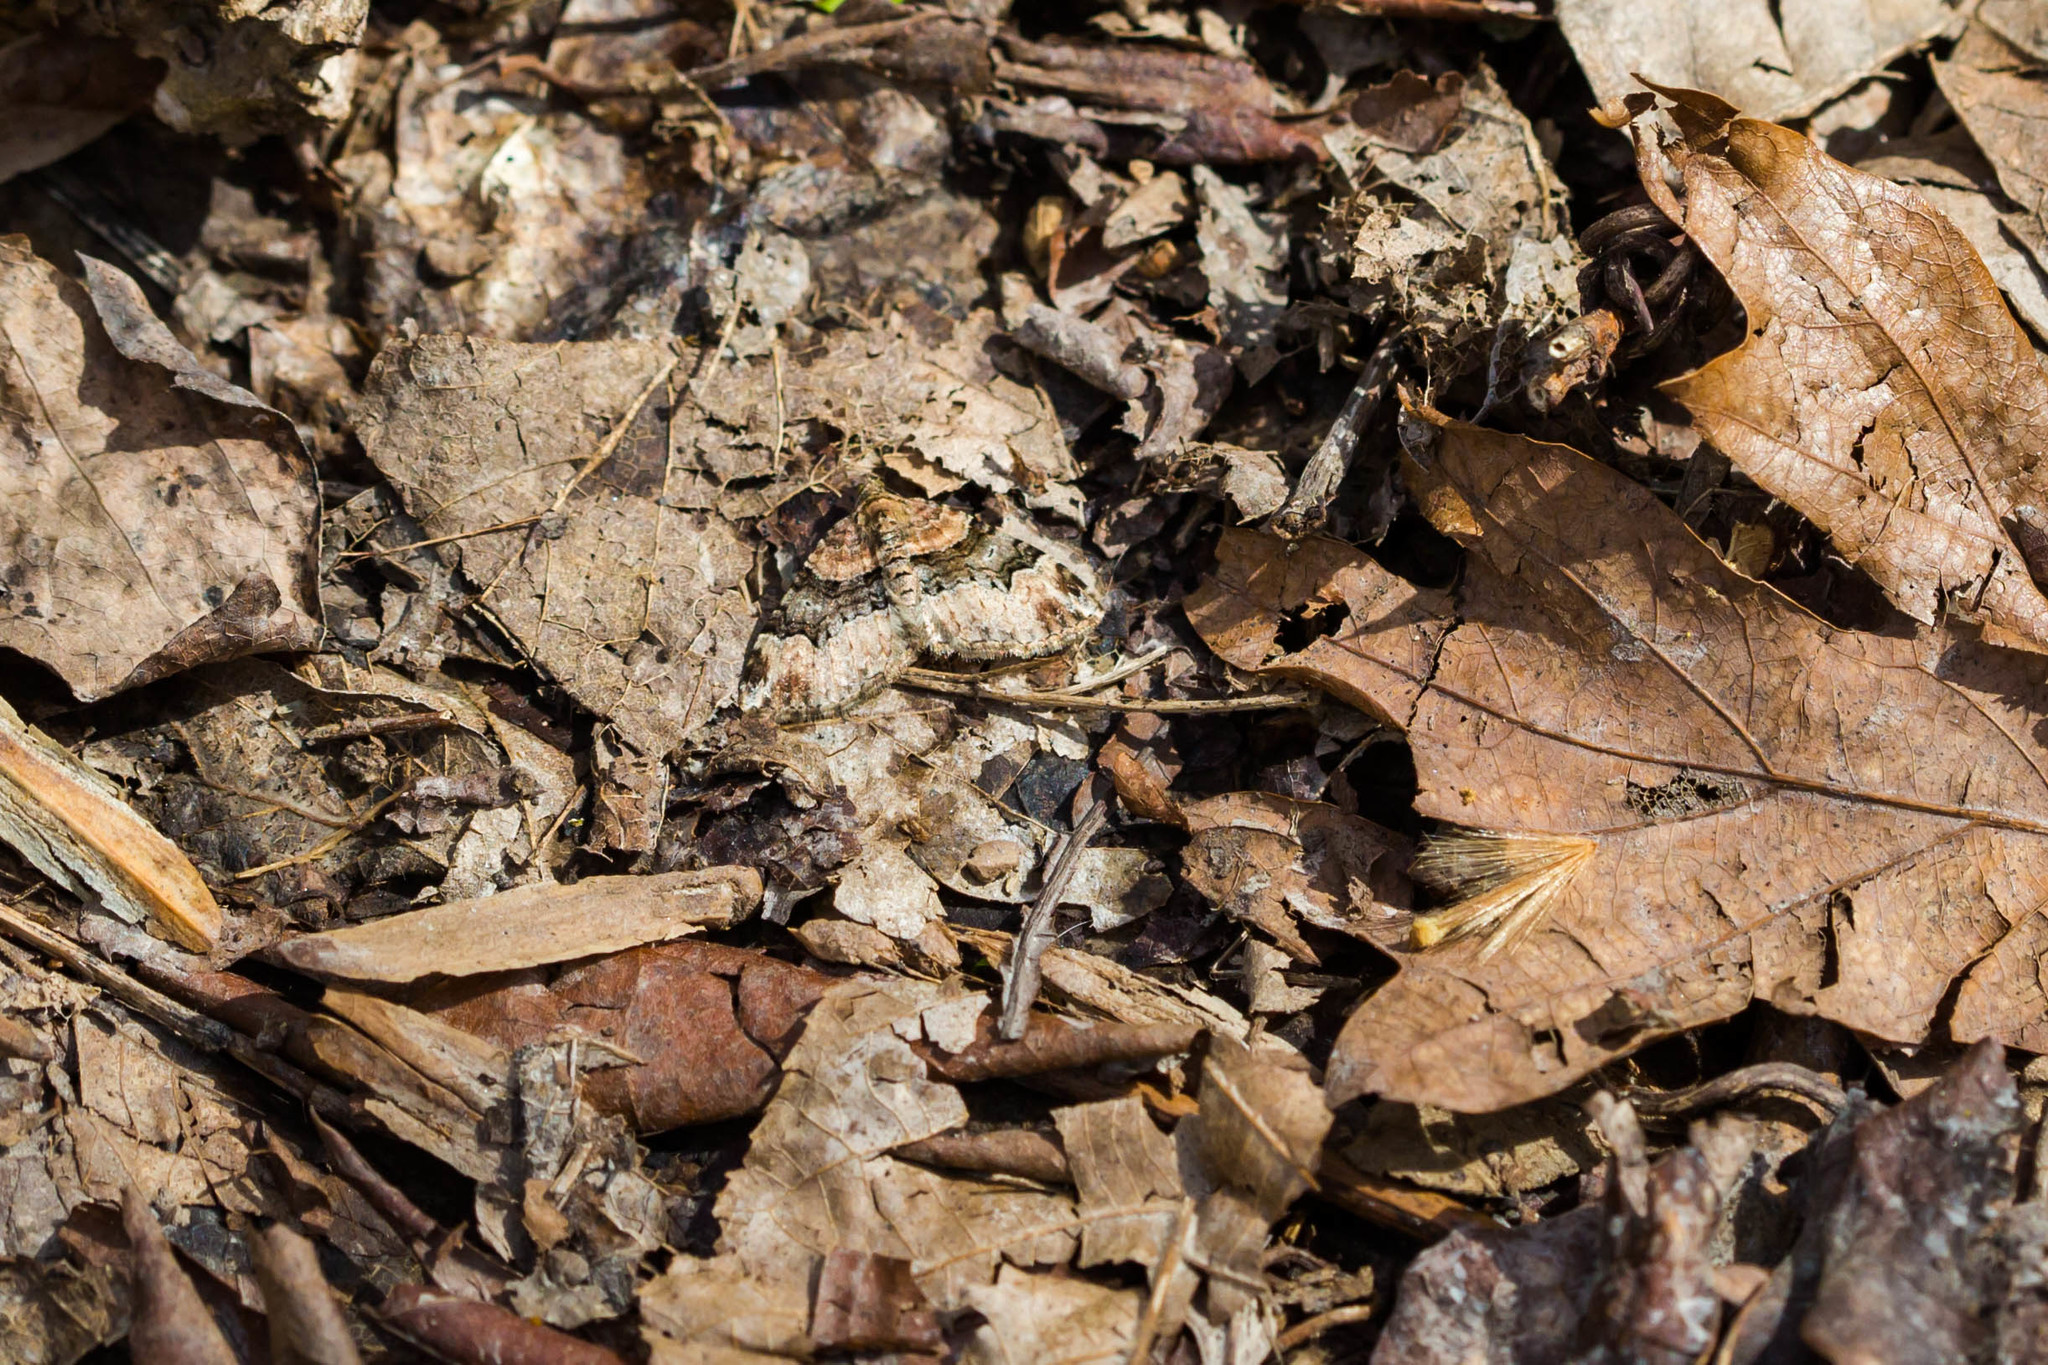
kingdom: Animalia
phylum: Arthropoda
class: Insecta
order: Lepidoptera
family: Geometridae
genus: Xanthorhoe
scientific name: Xanthorhoe lacustrata
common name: Toothed brown carpet
